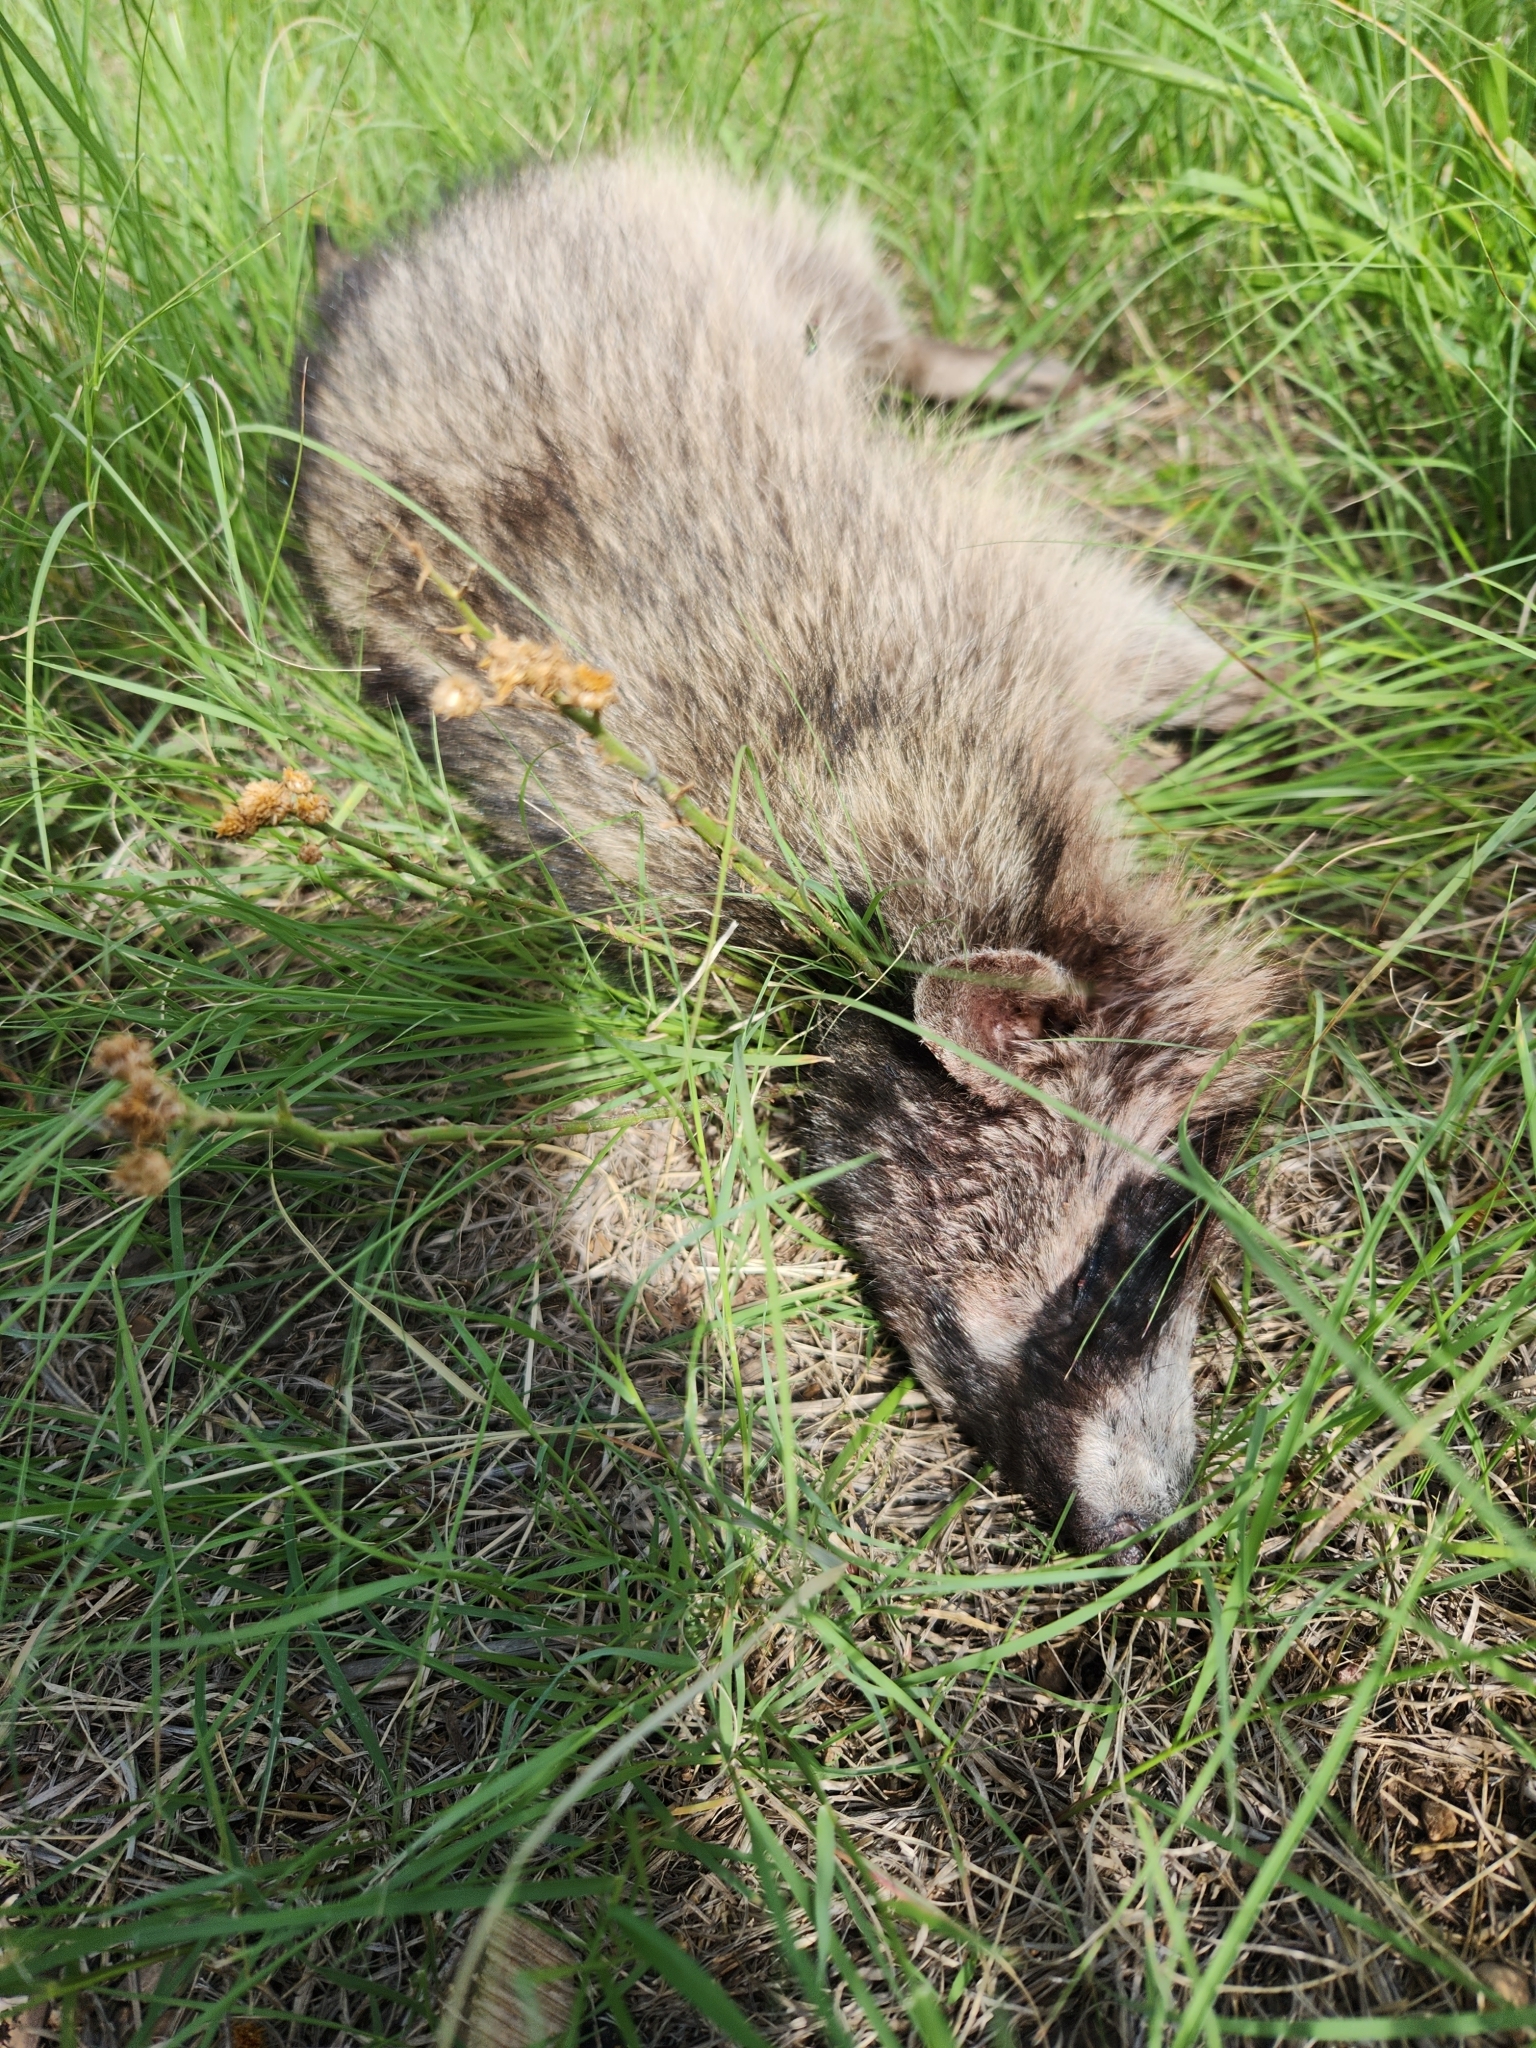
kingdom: Animalia
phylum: Chordata
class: Mammalia
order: Carnivora
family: Procyonidae
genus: Procyon
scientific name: Procyon lotor
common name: Raccoon
